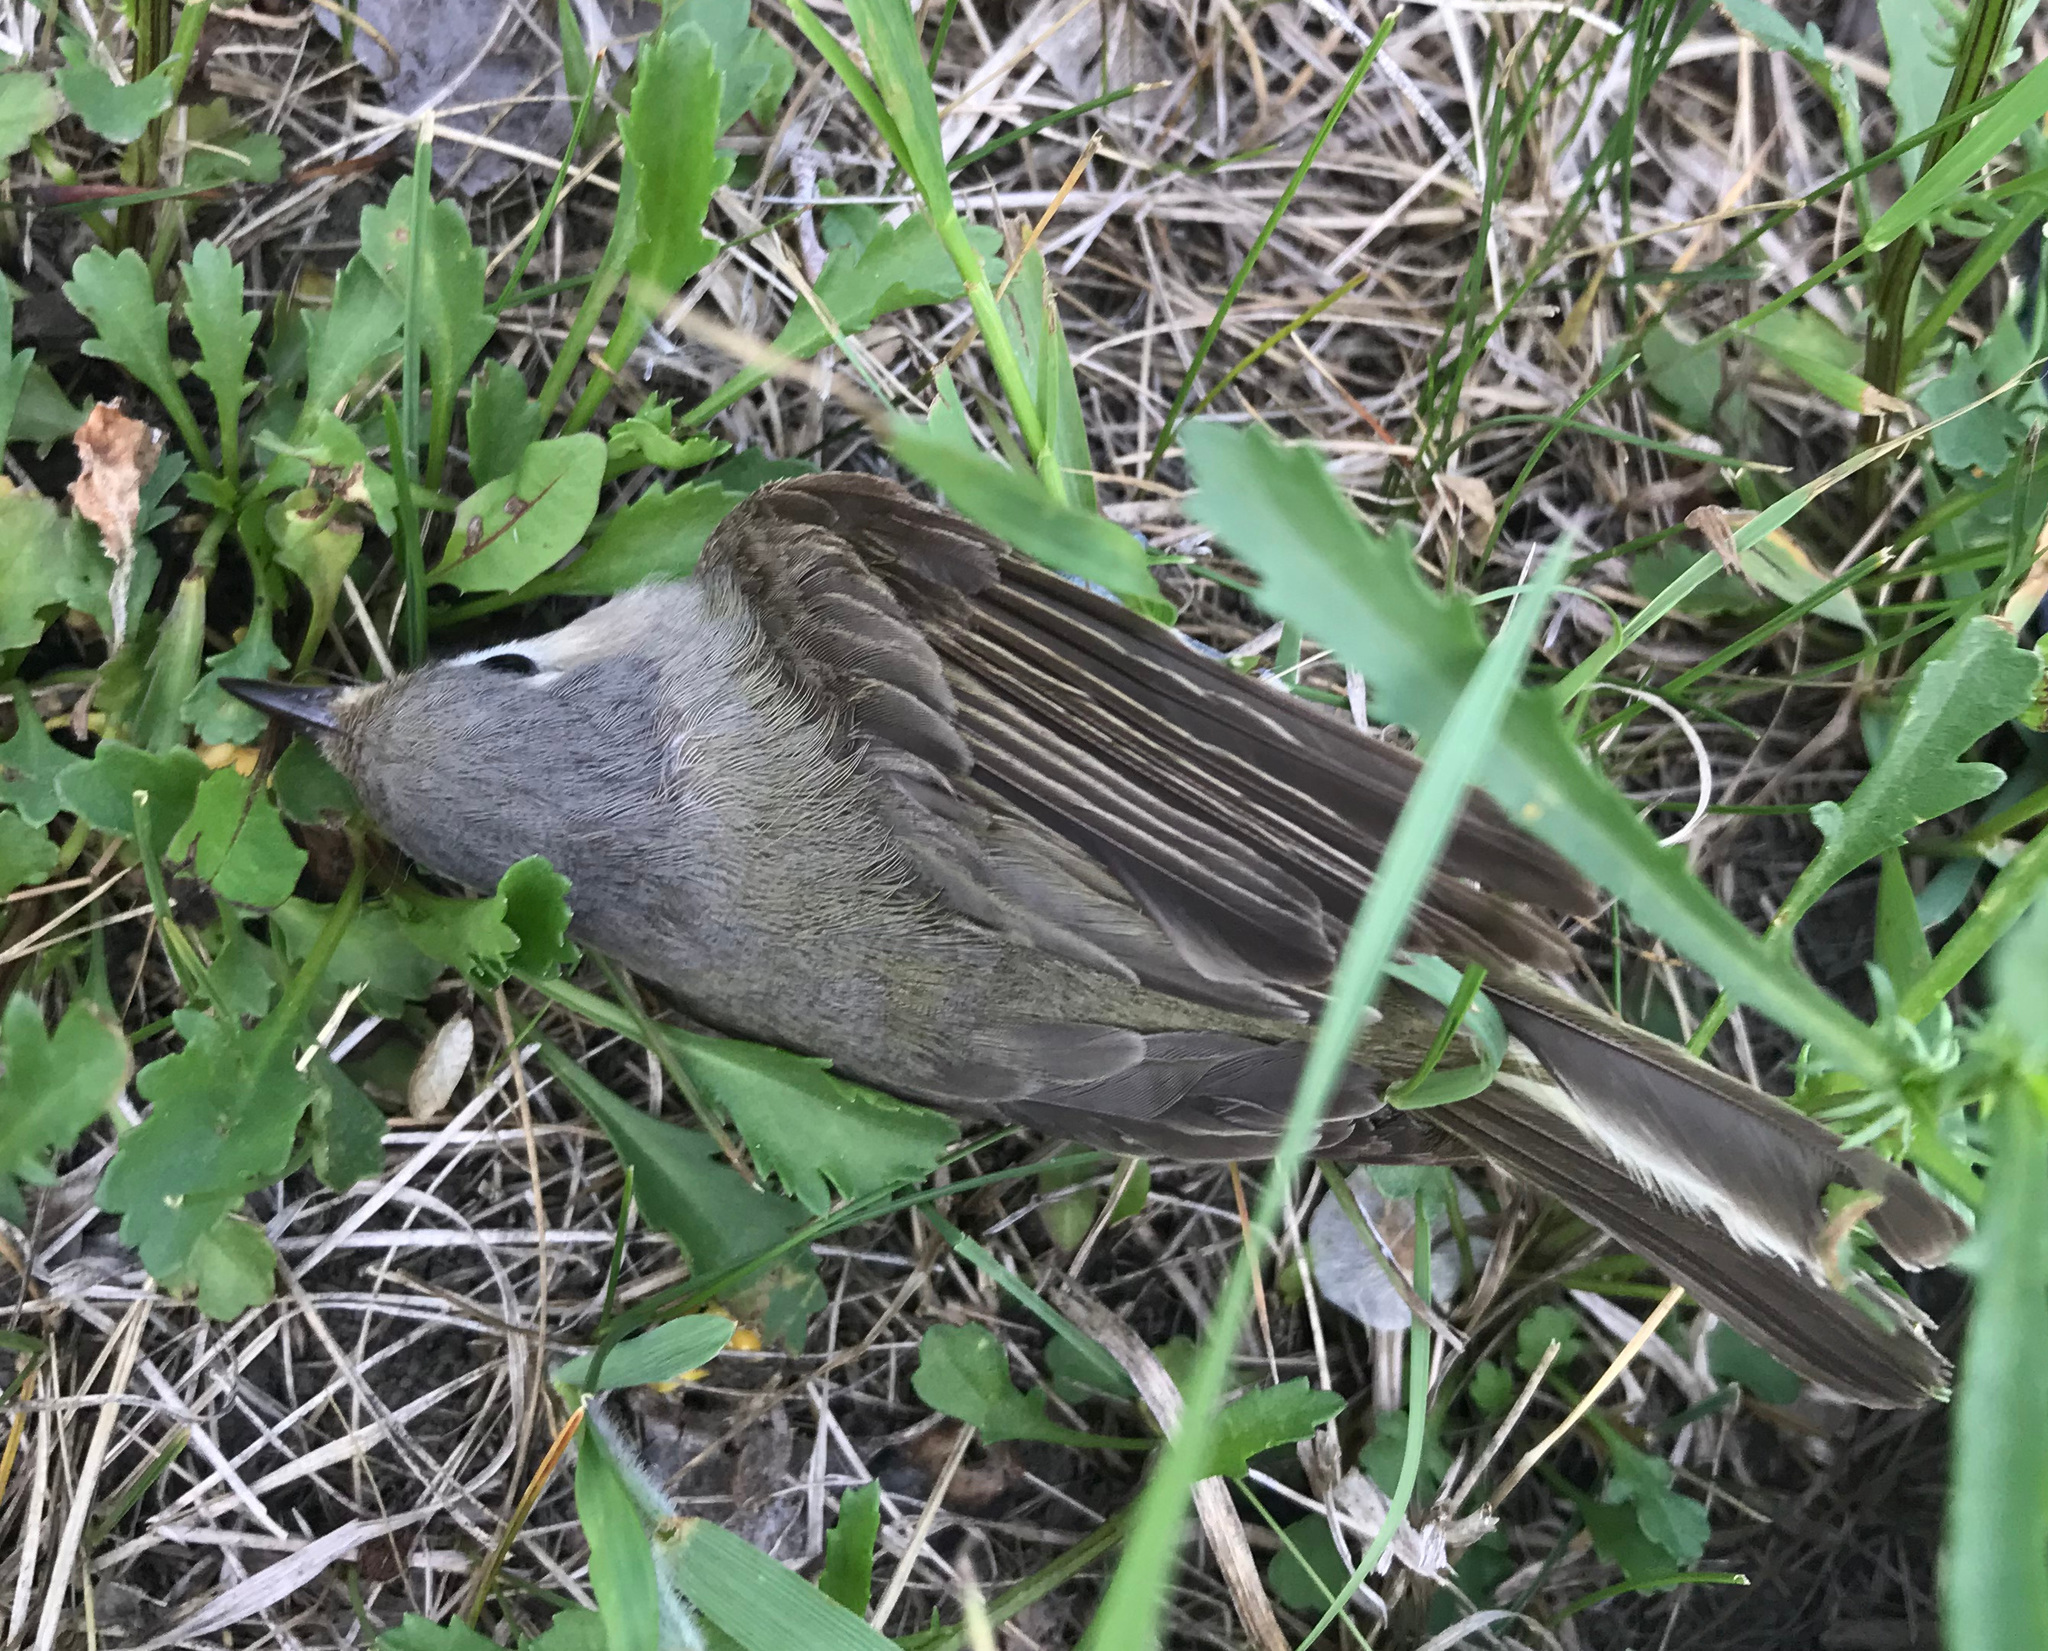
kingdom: Animalia
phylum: Chordata
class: Aves
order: Passeriformes
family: Parulidae
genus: Leiothlypis
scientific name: Leiothlypis peregrina
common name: Tennessee warbler
